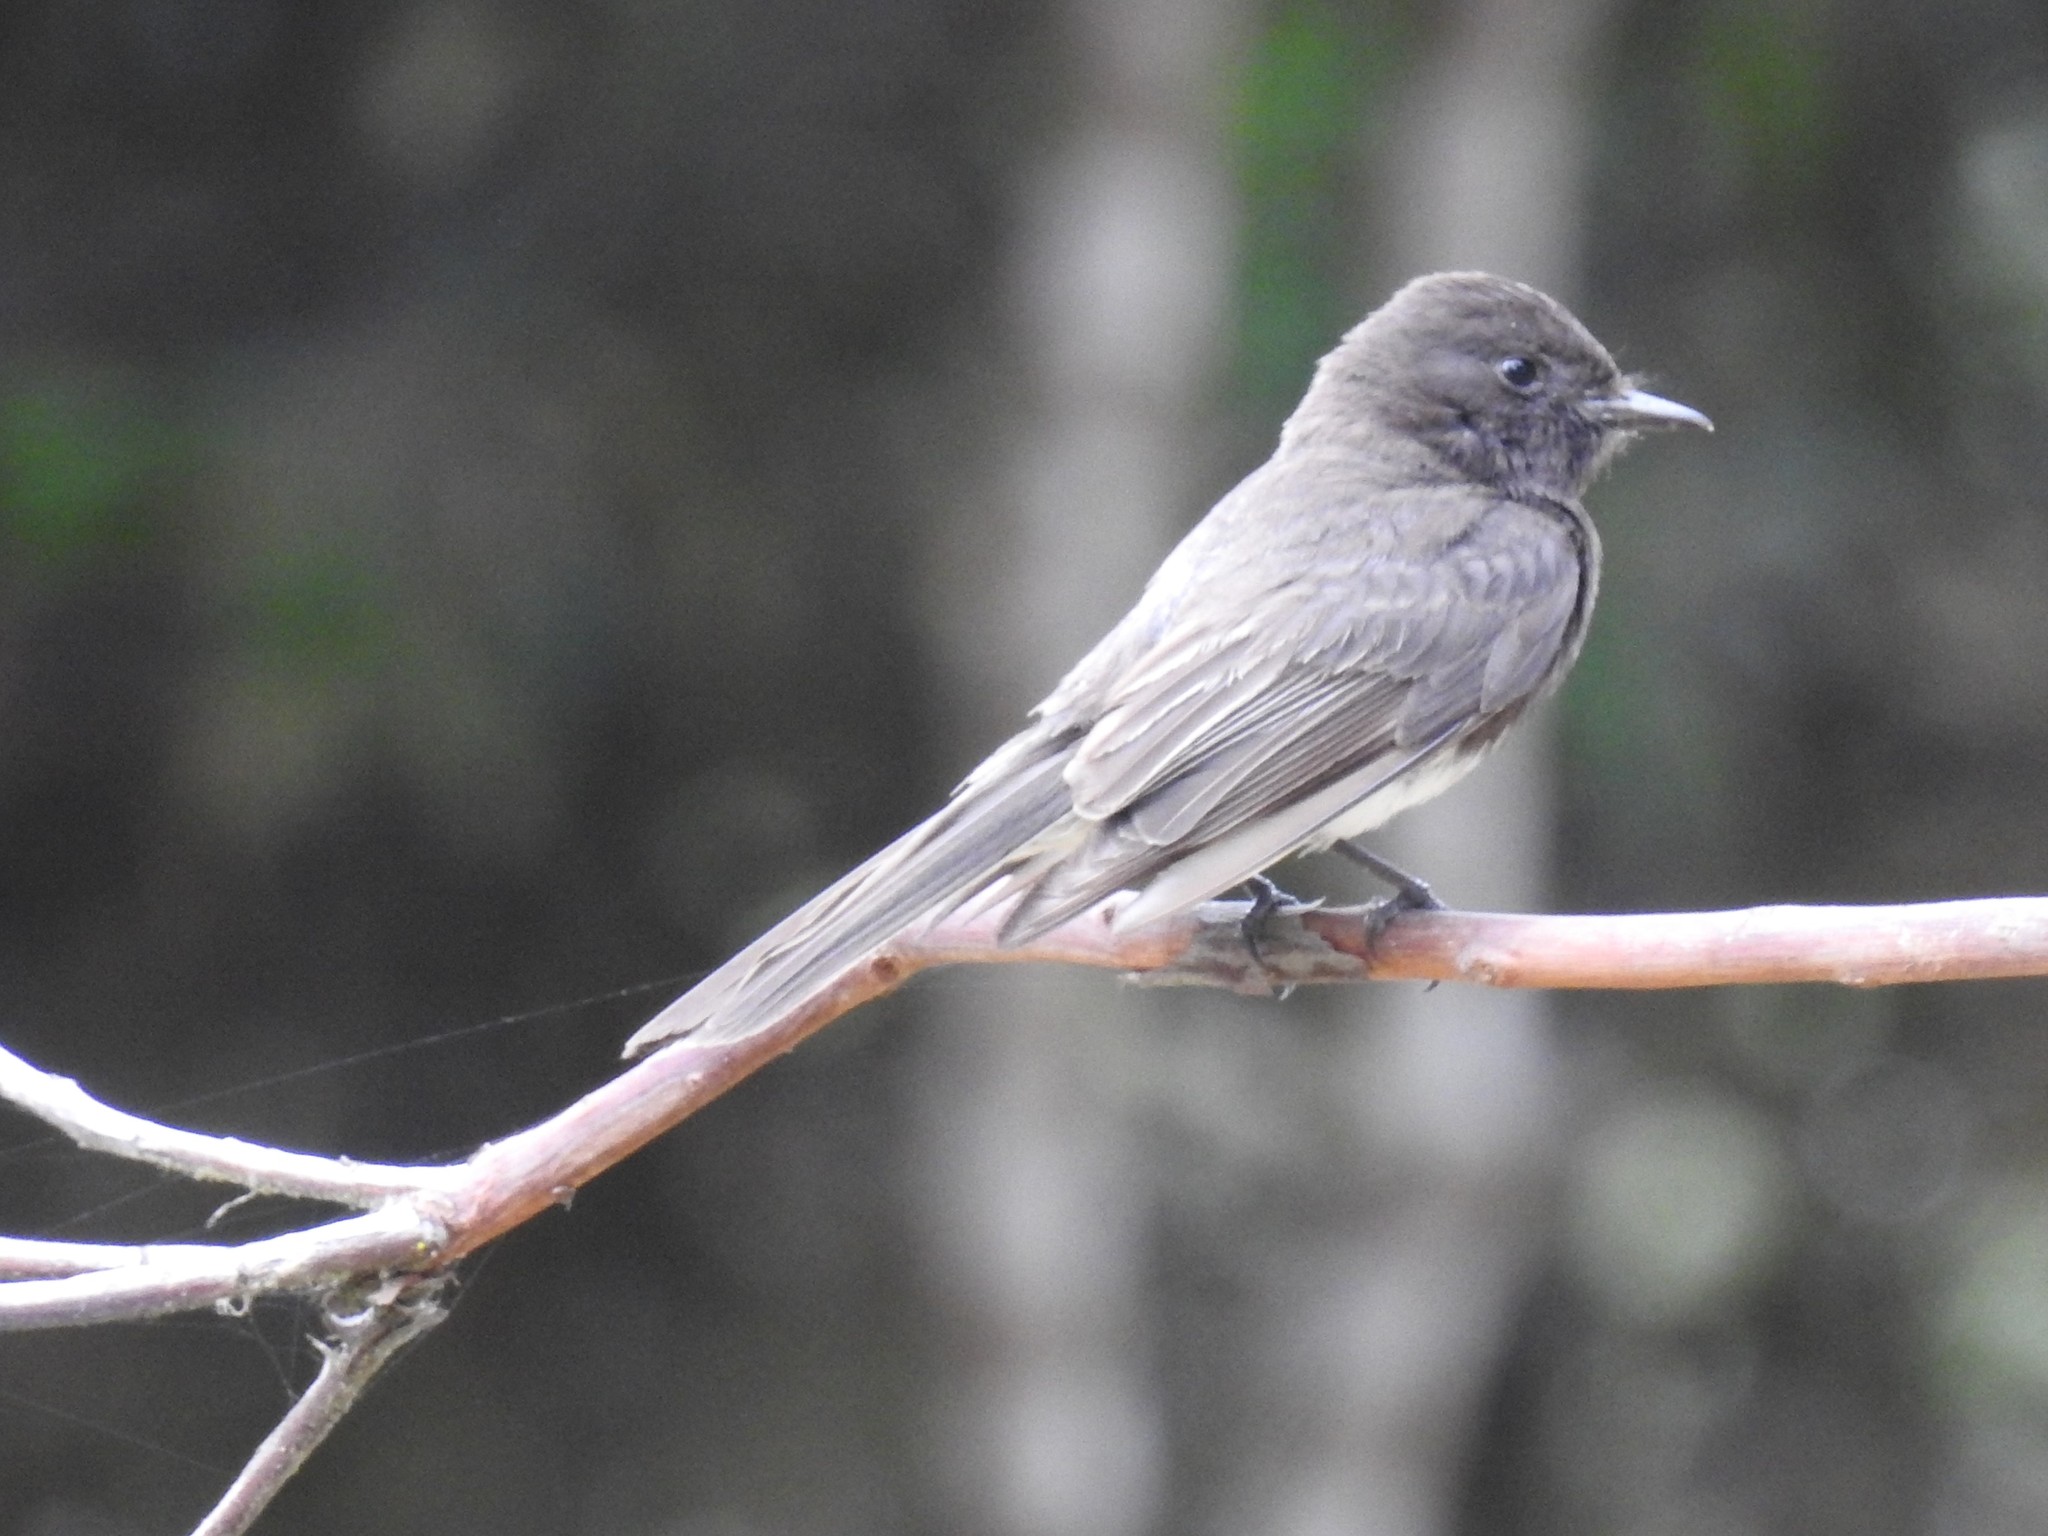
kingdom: Animalia
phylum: Chordata
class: Aves
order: Passeriformes
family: Tyrannidae
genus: Sayornis
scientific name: Sayornis nigricans
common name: Black phoebe
